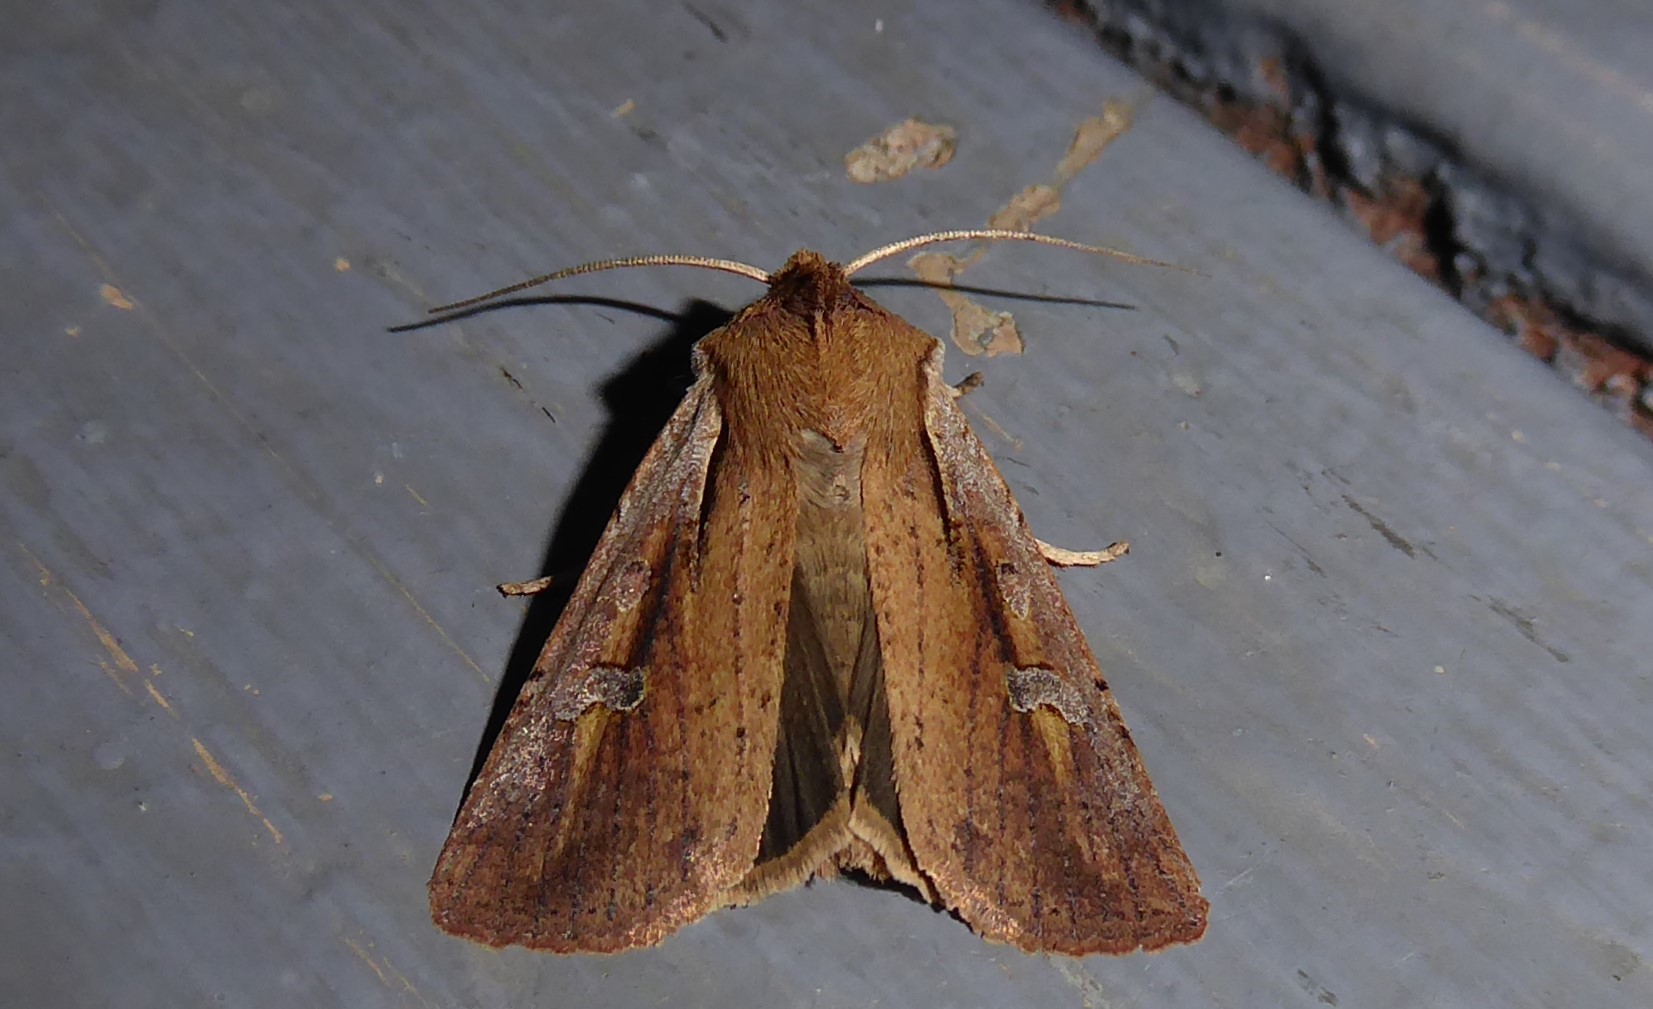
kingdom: Animalia
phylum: Arthropoda
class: Insecta
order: Lepidoptera
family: Noctuidae
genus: Ichneutica
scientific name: Ichneutica atristriga
